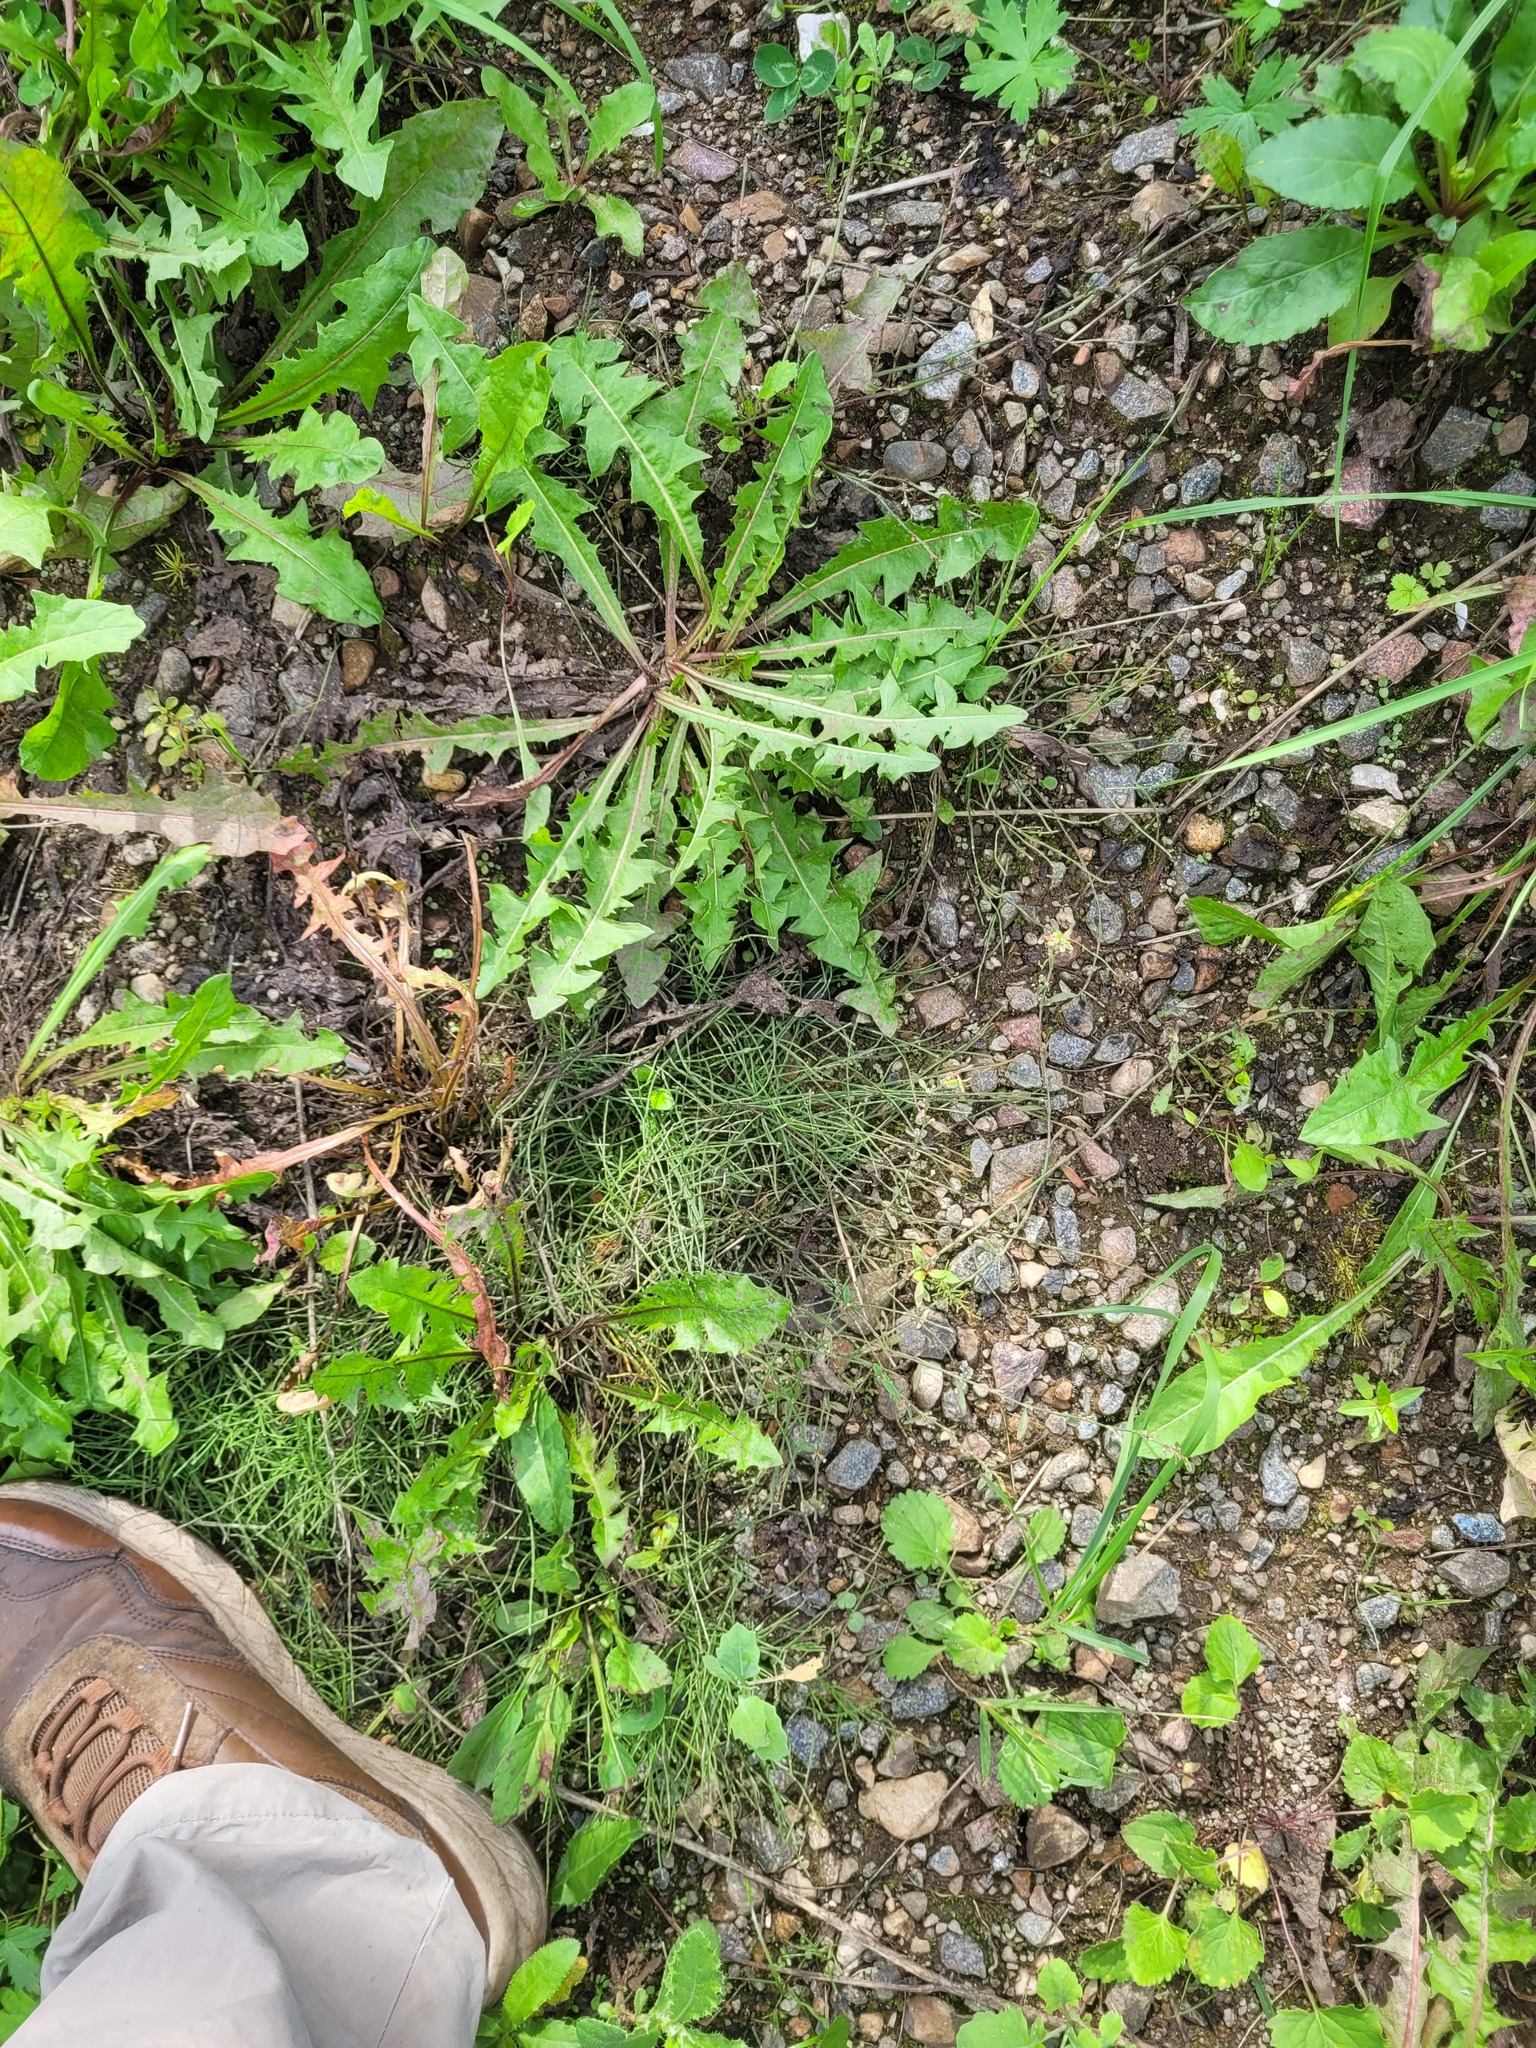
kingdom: Plantae
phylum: Tracheophyta
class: Polypodiopsida
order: Equisetales
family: Equisetaceae
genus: Equisetum
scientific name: Equisetum arvense
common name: Field horsetail
